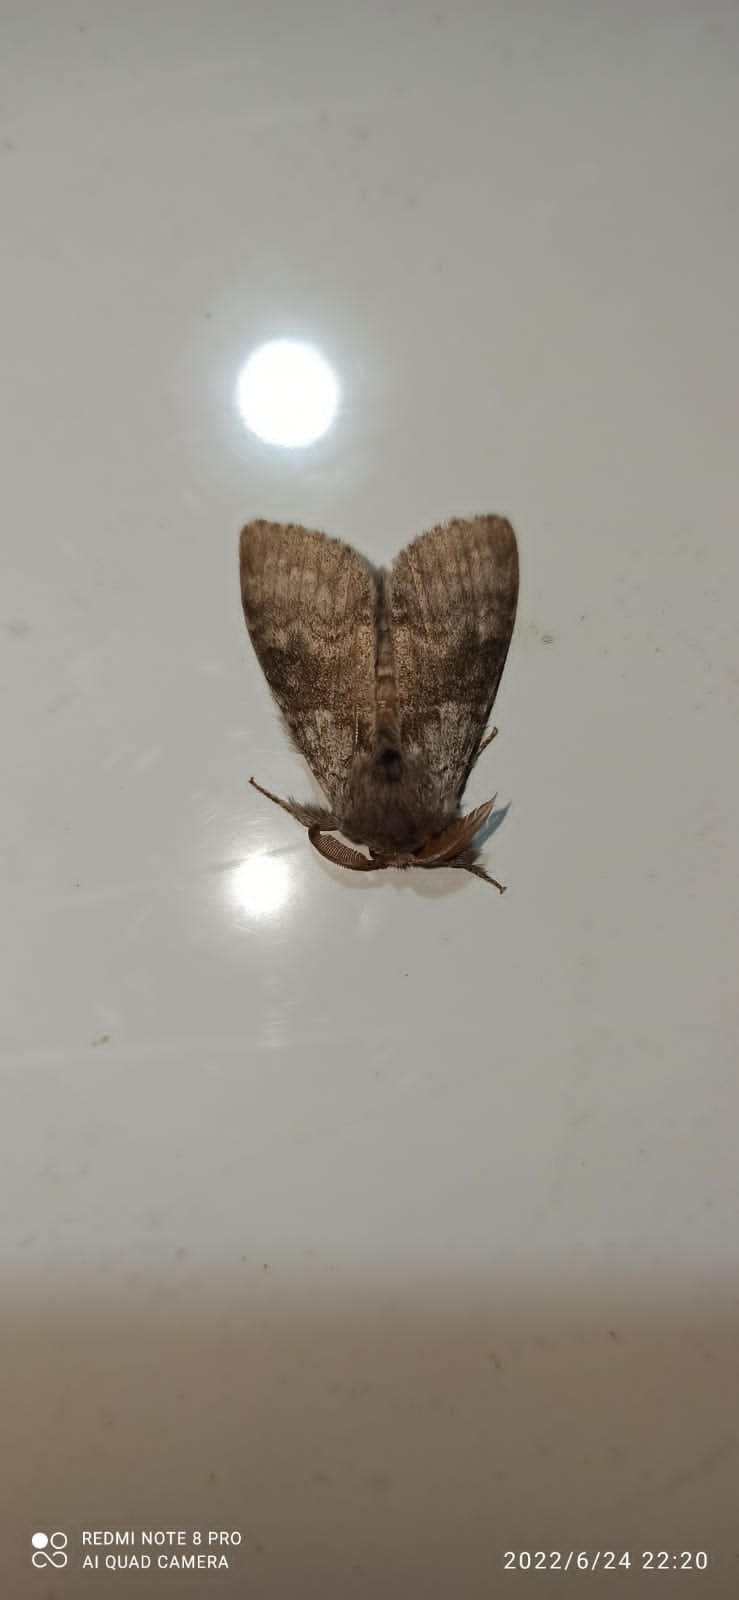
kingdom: Animalia
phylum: Arthropoda
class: Insecta
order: Lepidoptera
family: Erebidae
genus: Calliteara
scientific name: Calliteara pudibunda
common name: Pale tussock
